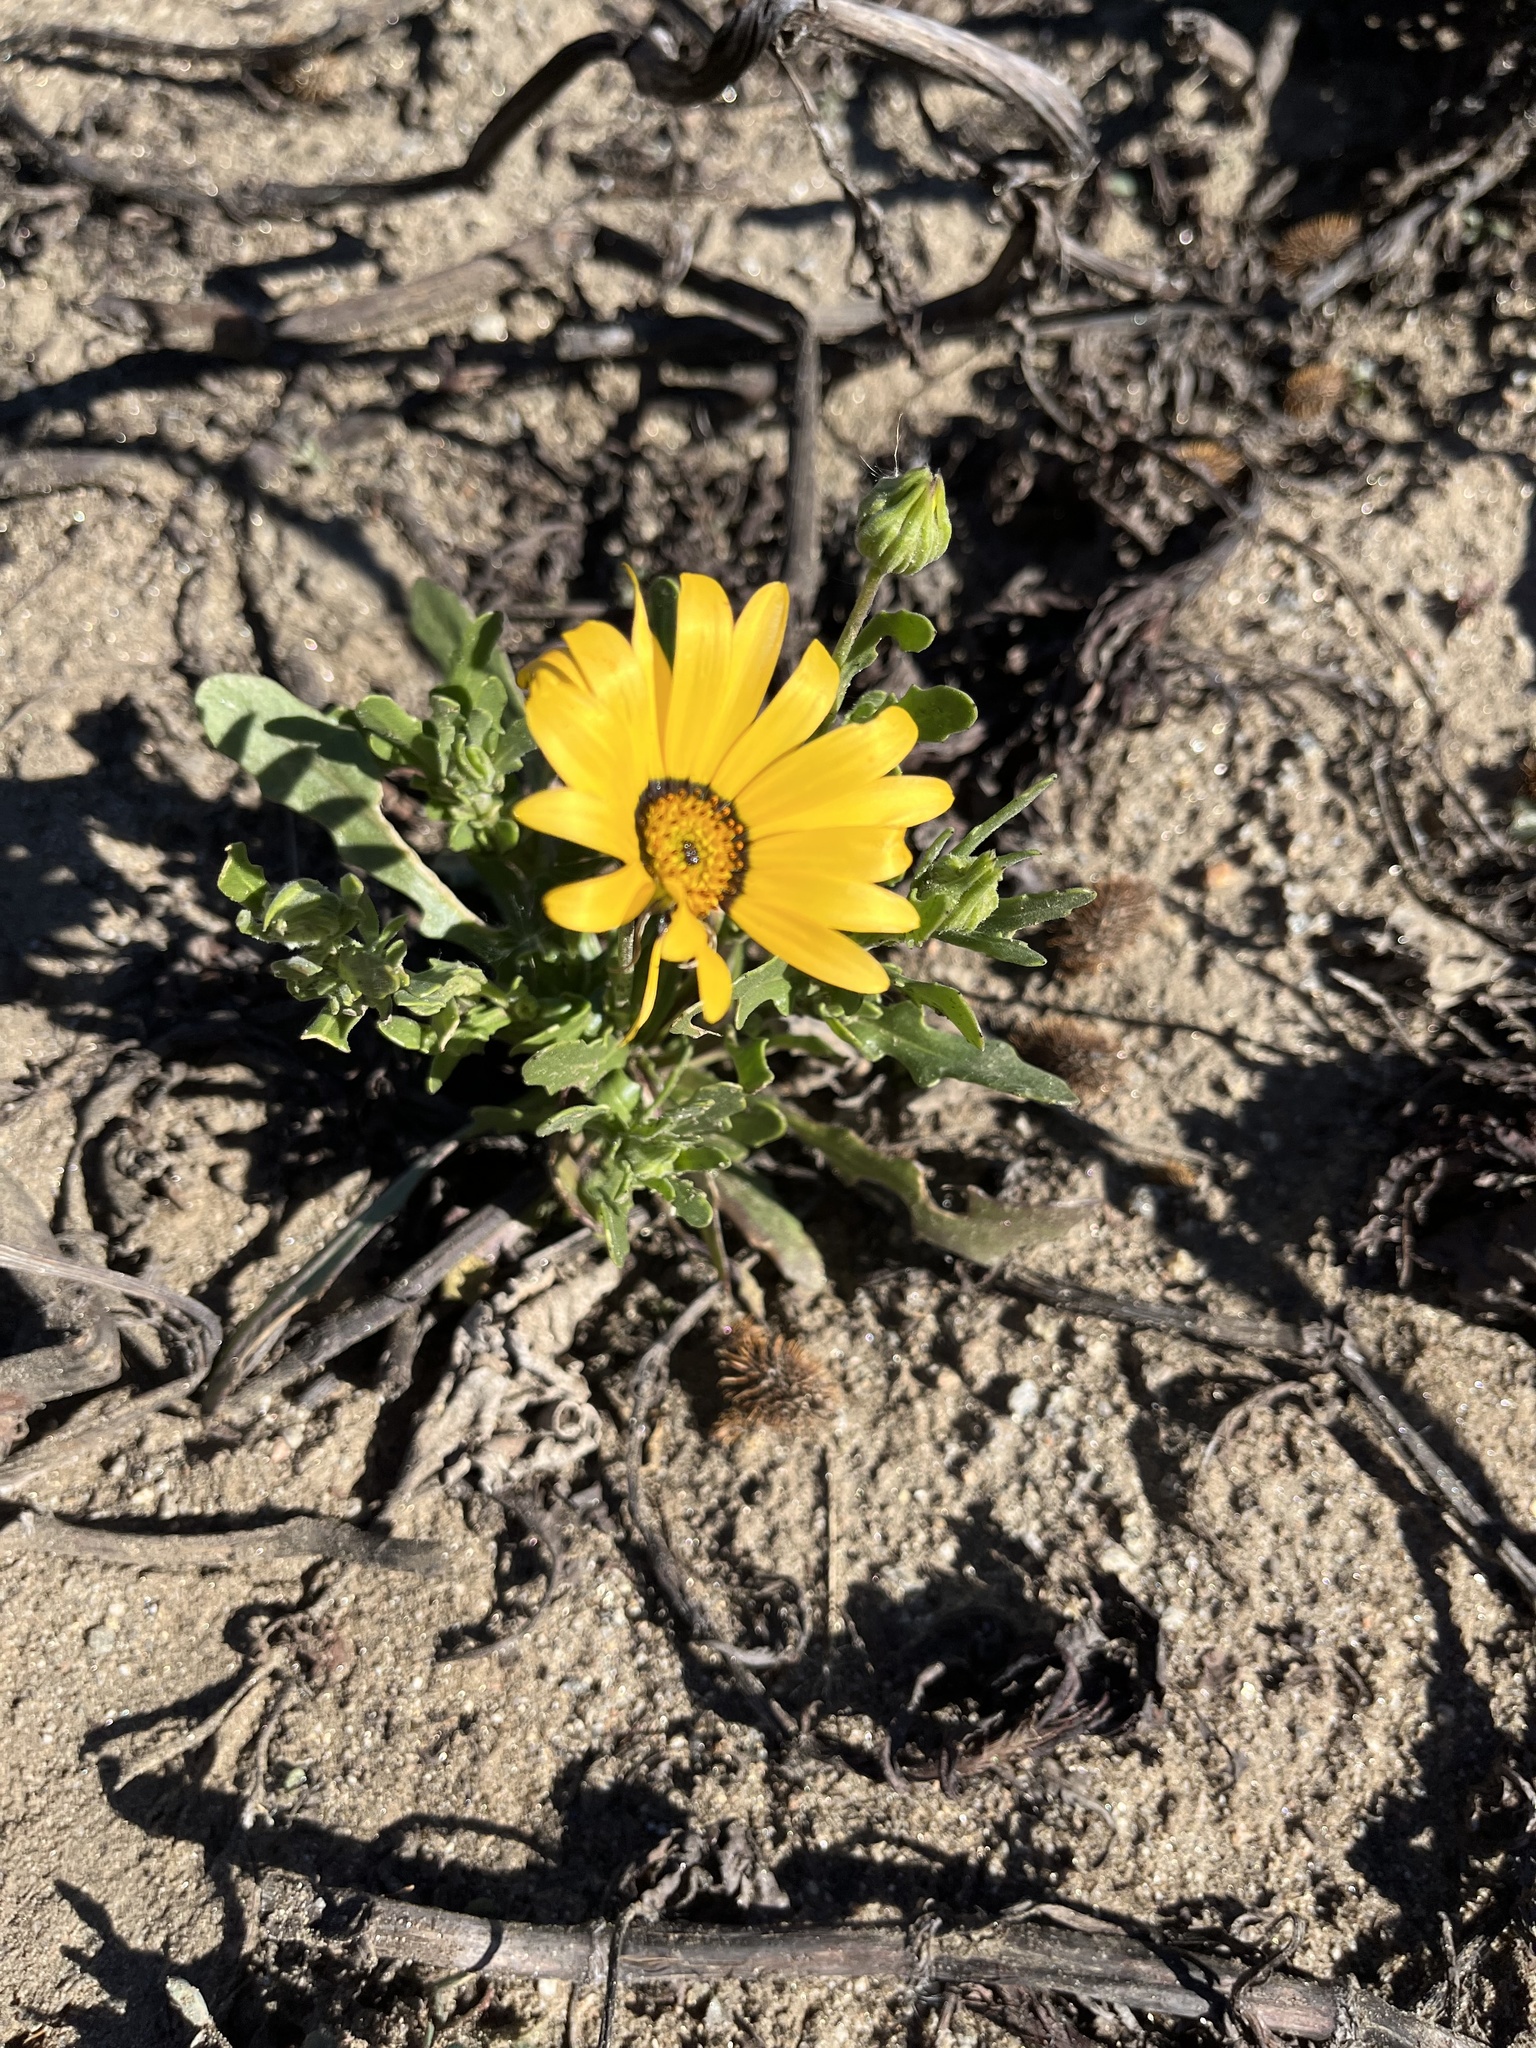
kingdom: Plantae
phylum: Tracheophyta
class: Magnoliopsida
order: Asterales
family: Asteraceae
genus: Dimorphotheca
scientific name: Dimorphotheca sinuata
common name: Glandular cape marigold
